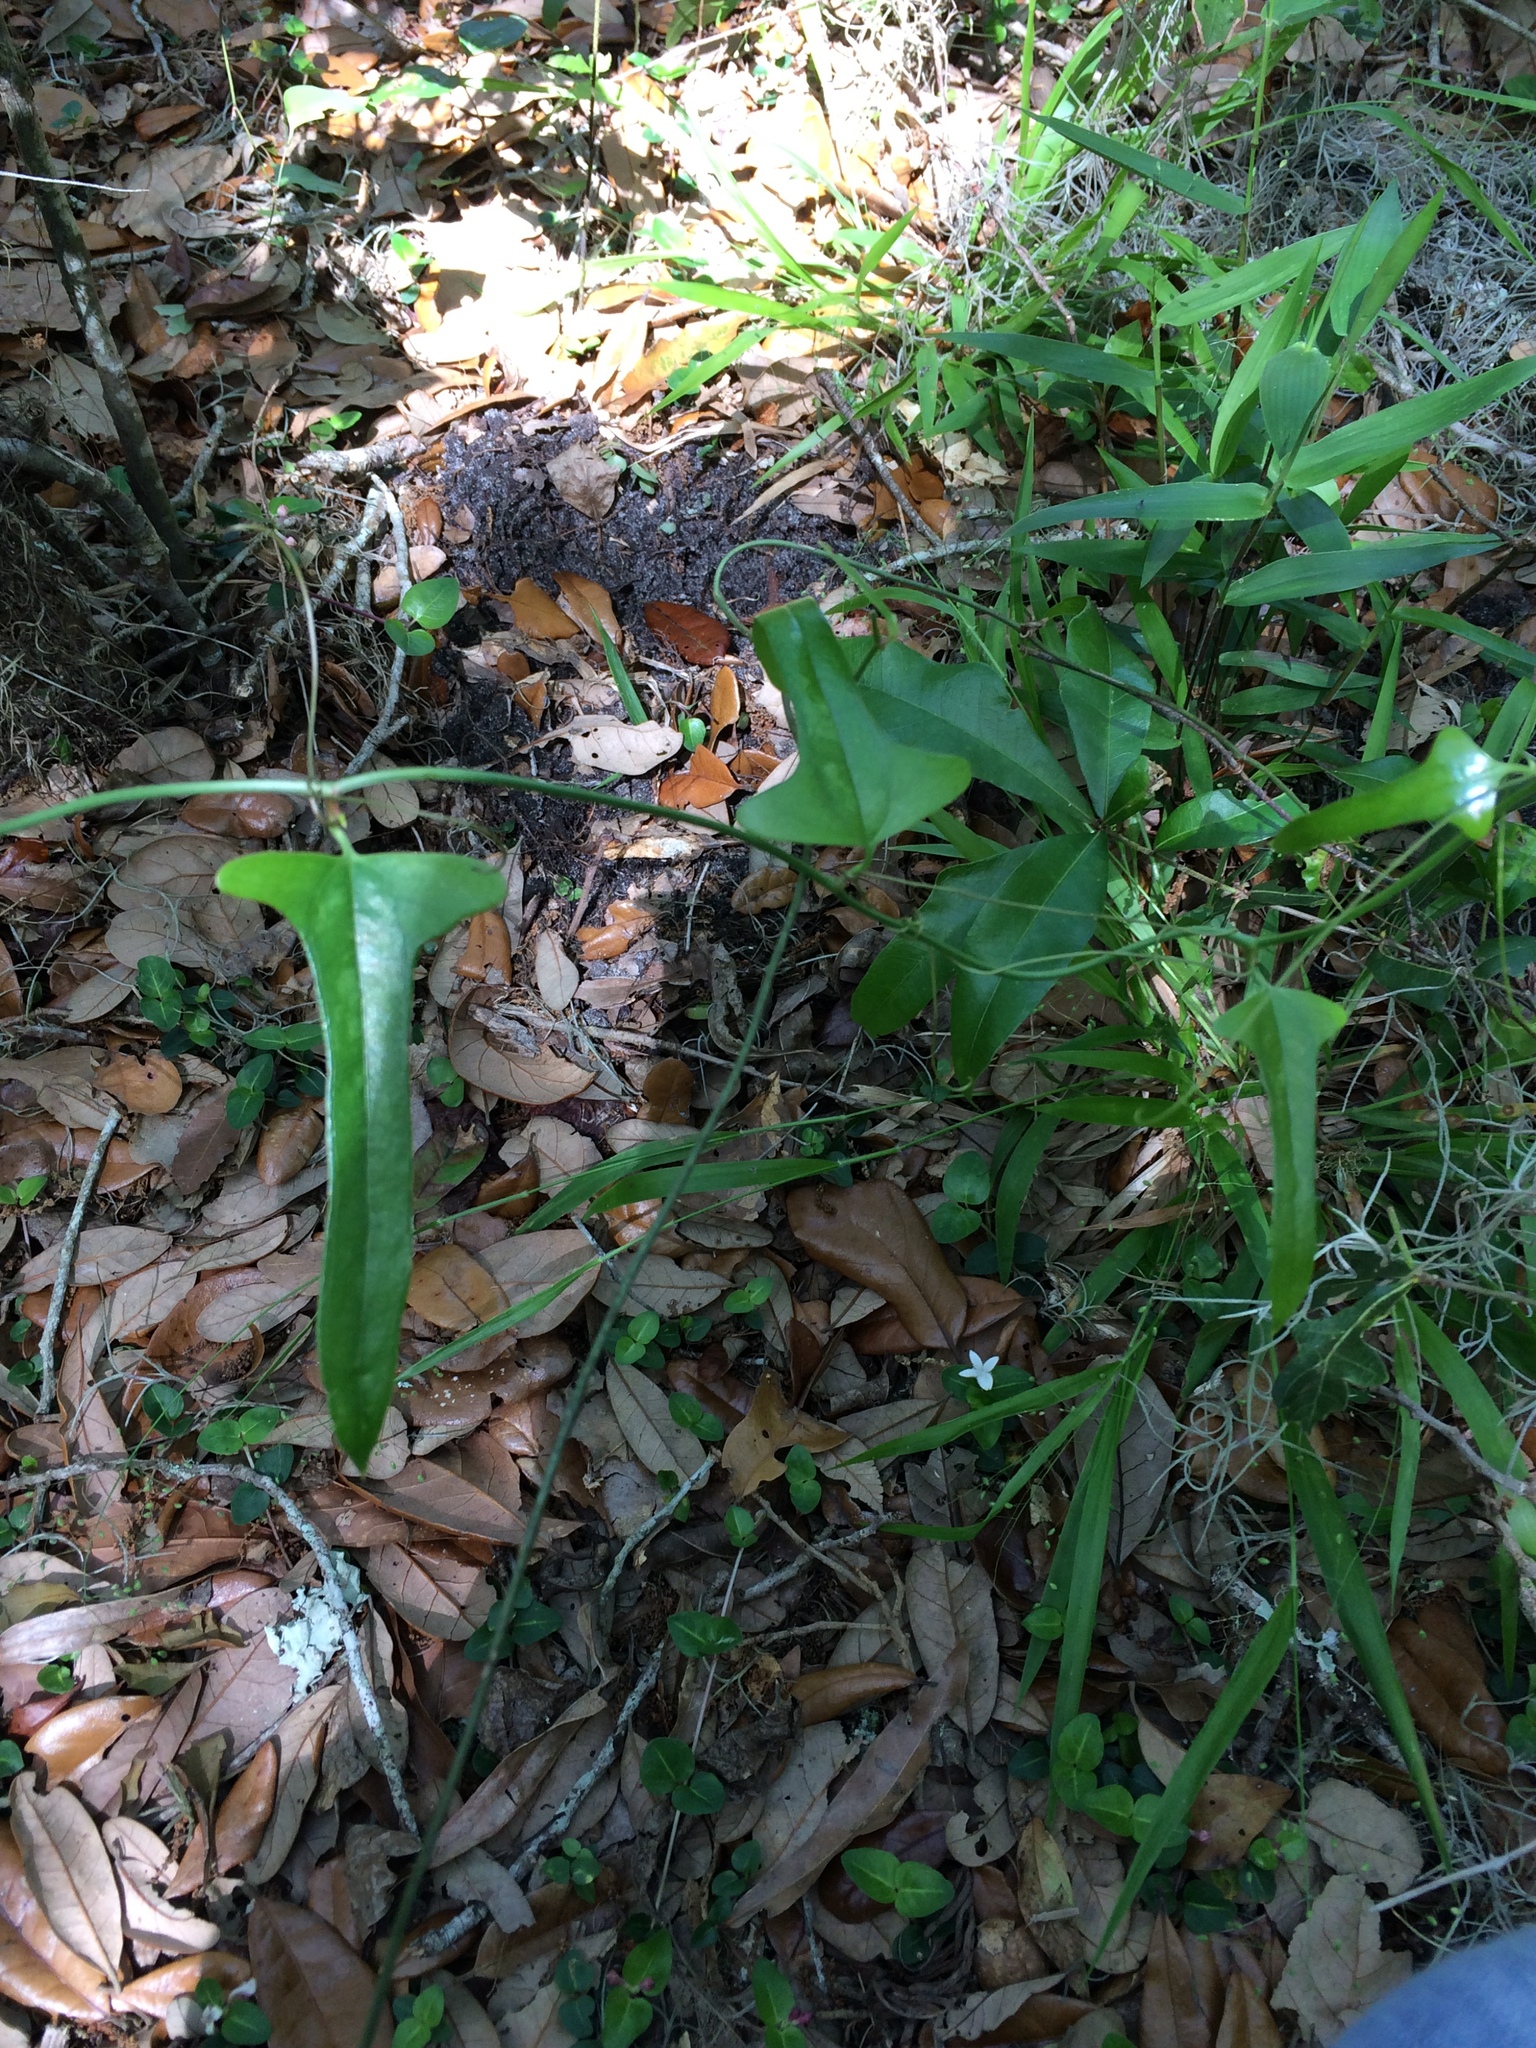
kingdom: Plantae
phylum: Tracheophyta
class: Liliopsida
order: Liliales
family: Smilacaceae
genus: Smilax
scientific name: Smilax auriculata
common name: Wild bamboo
